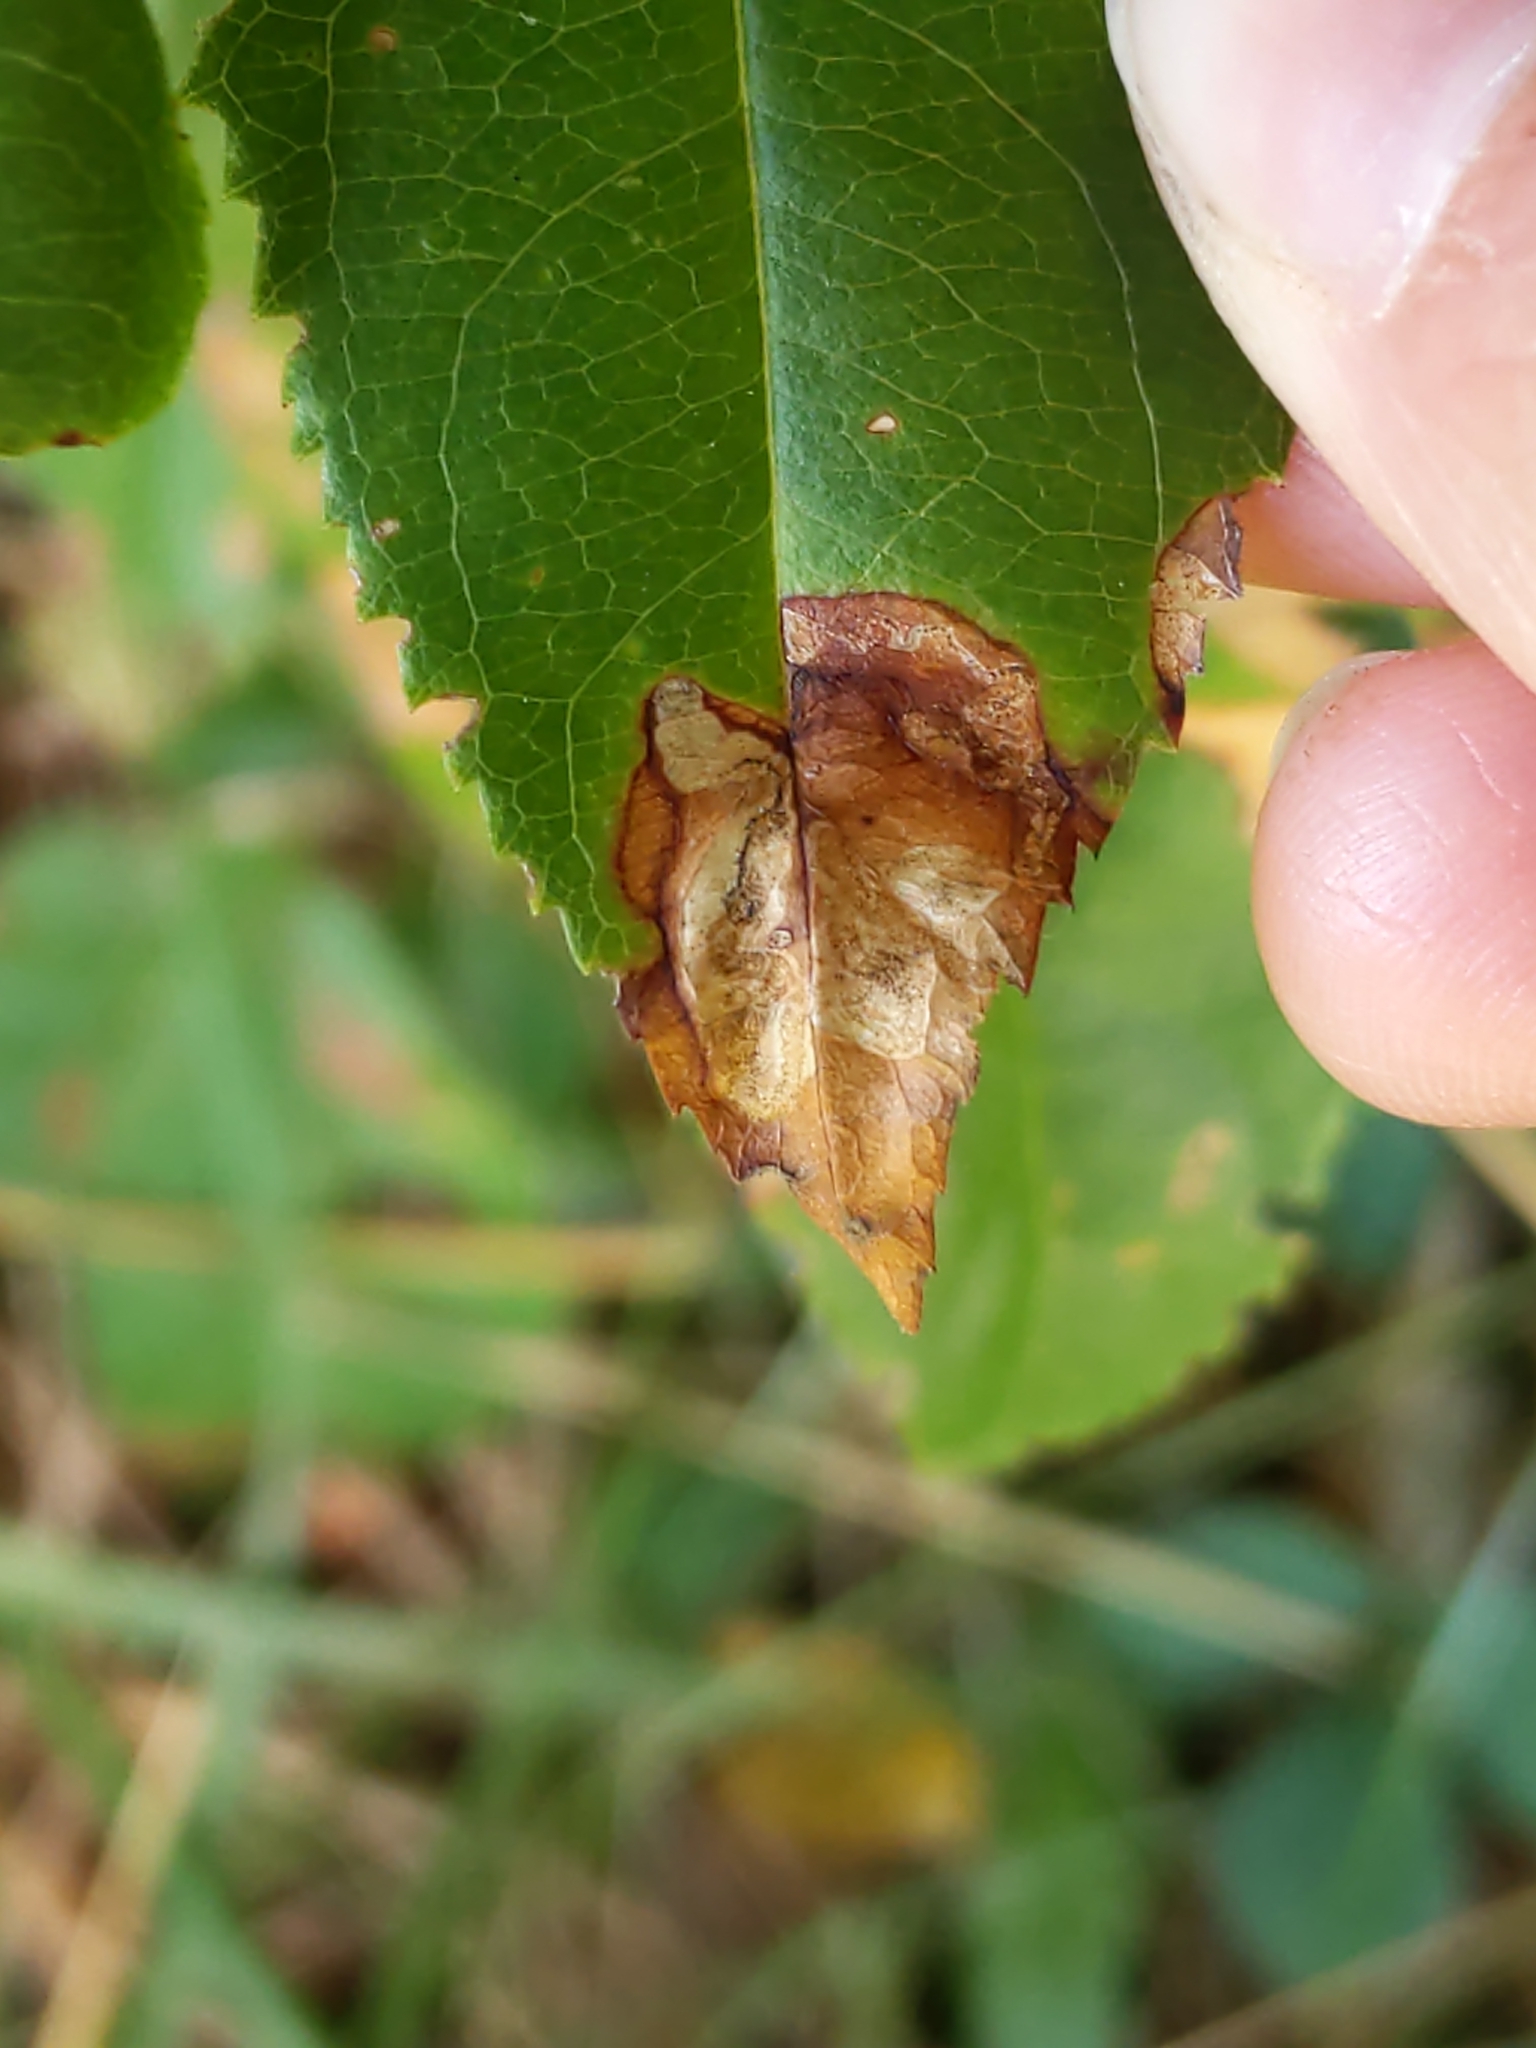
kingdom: Animalia
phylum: Arthropoda
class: Insecta
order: Lepidoptera
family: Nepticulidae
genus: Stigmella
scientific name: Stigmella prunifoliella
